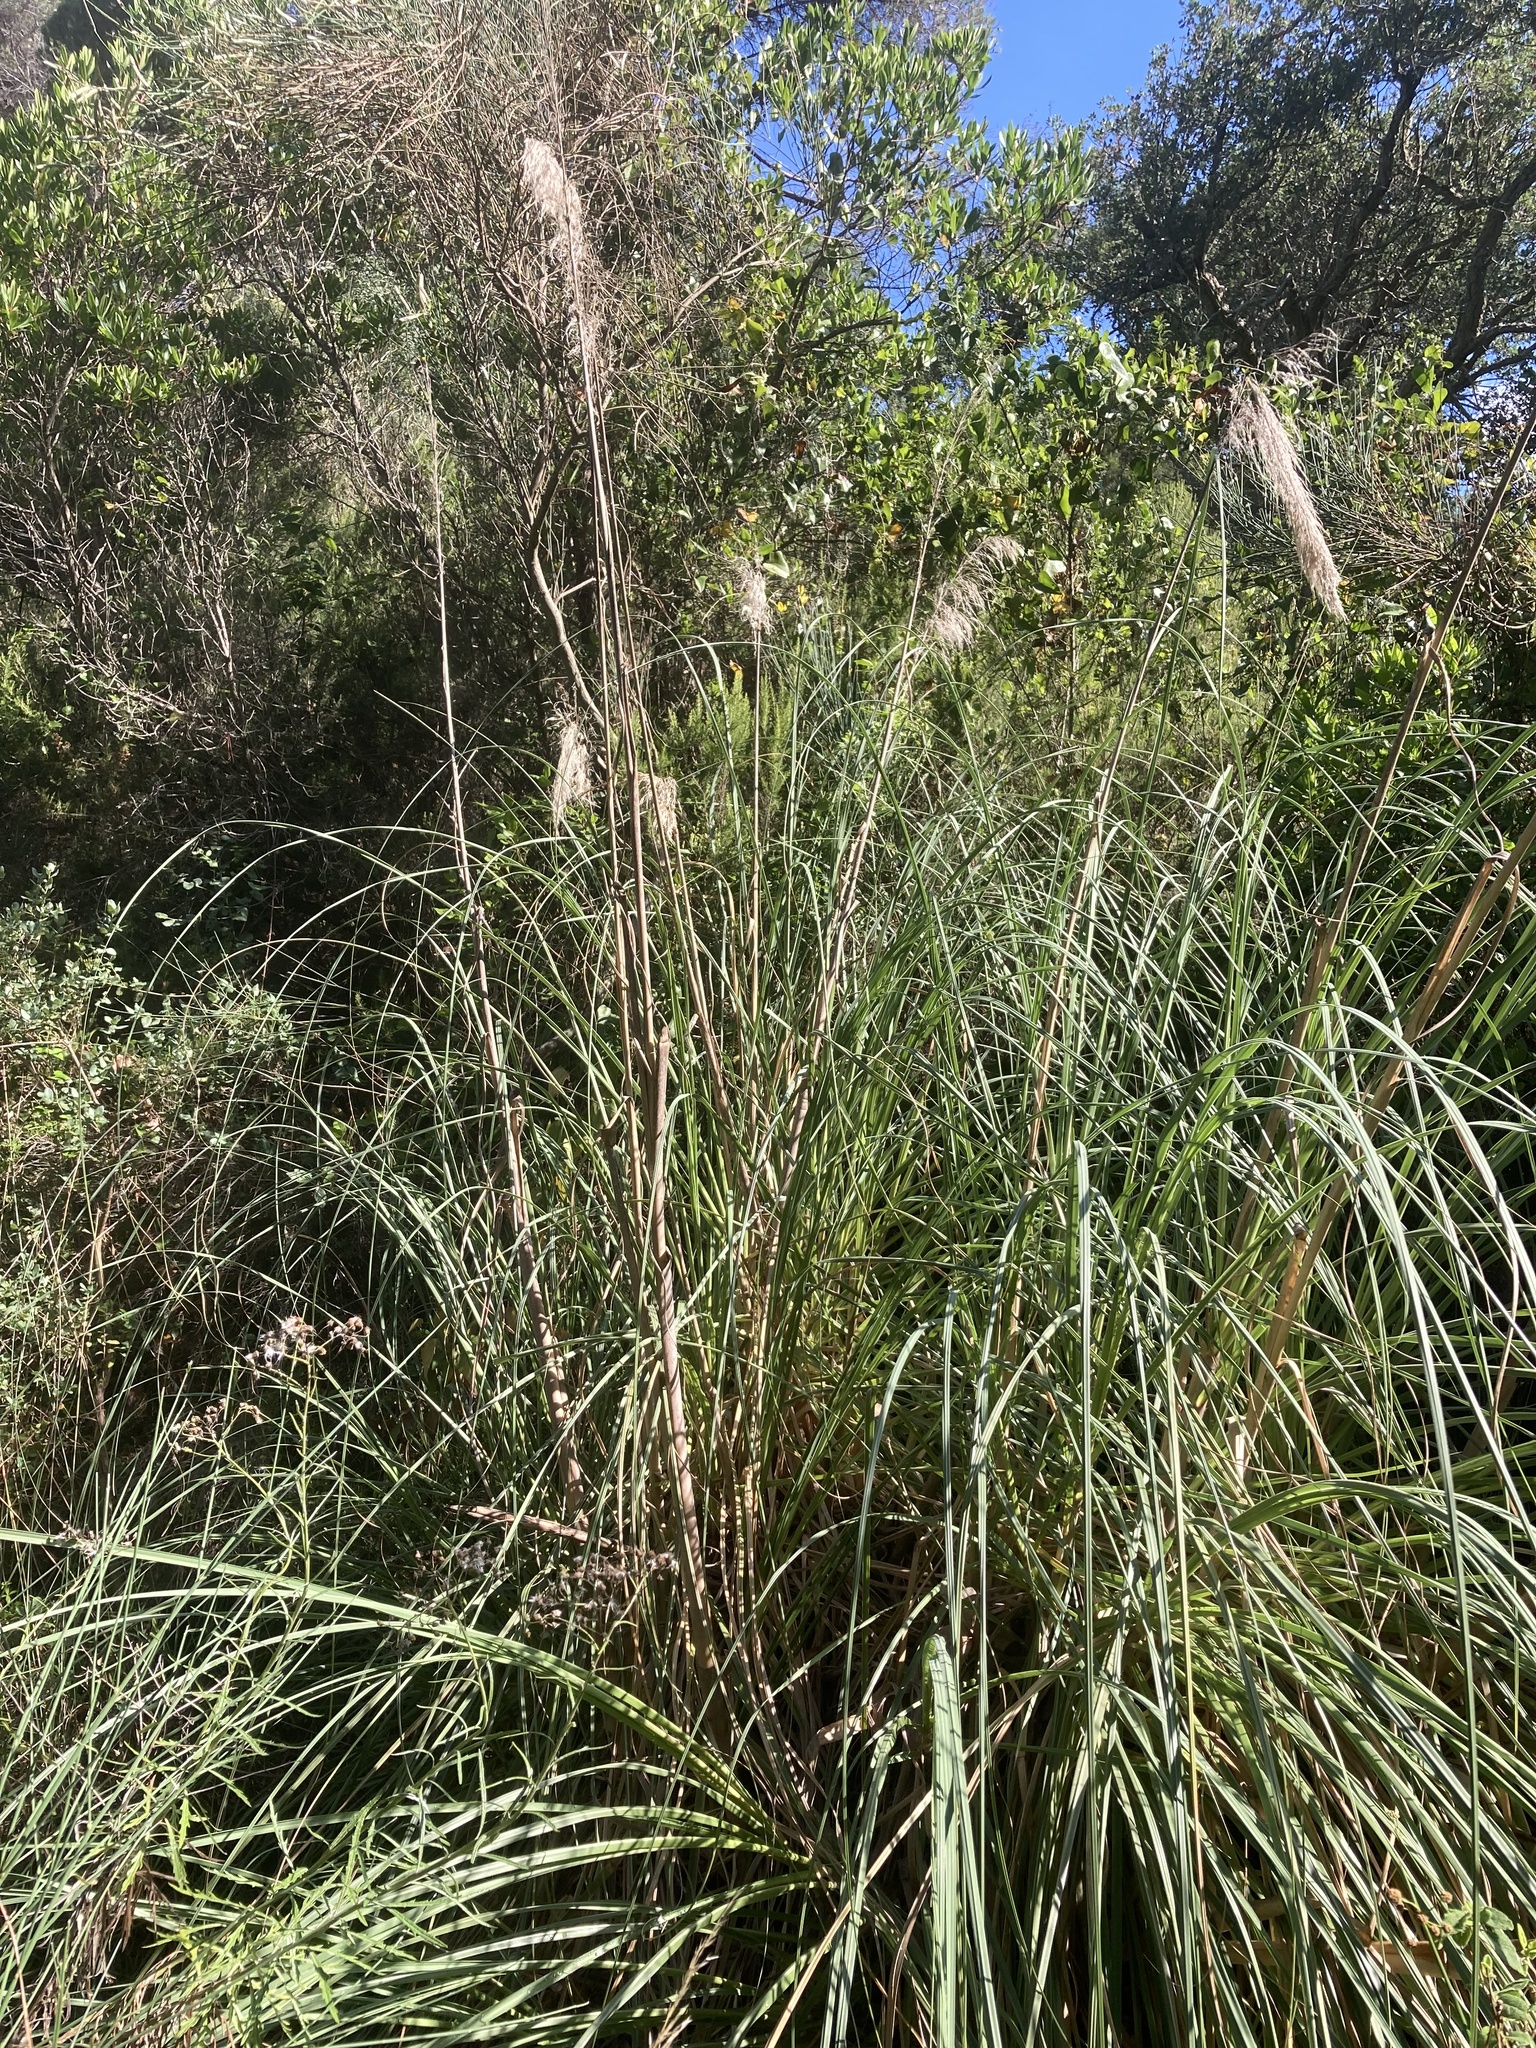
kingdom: Plantae
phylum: Tracheophyta
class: Liliopsida
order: Poales
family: Poaceae
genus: Cortaderia
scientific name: Cortaderia selloana
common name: Uruguayan pampas grass
